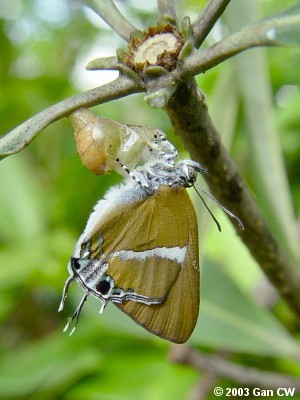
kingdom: Animalia
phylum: Arthropoda
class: Insecta
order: Lepidoptera
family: Lycaenidae
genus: Horaga
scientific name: Horaga syrinx
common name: Ambon onyx
